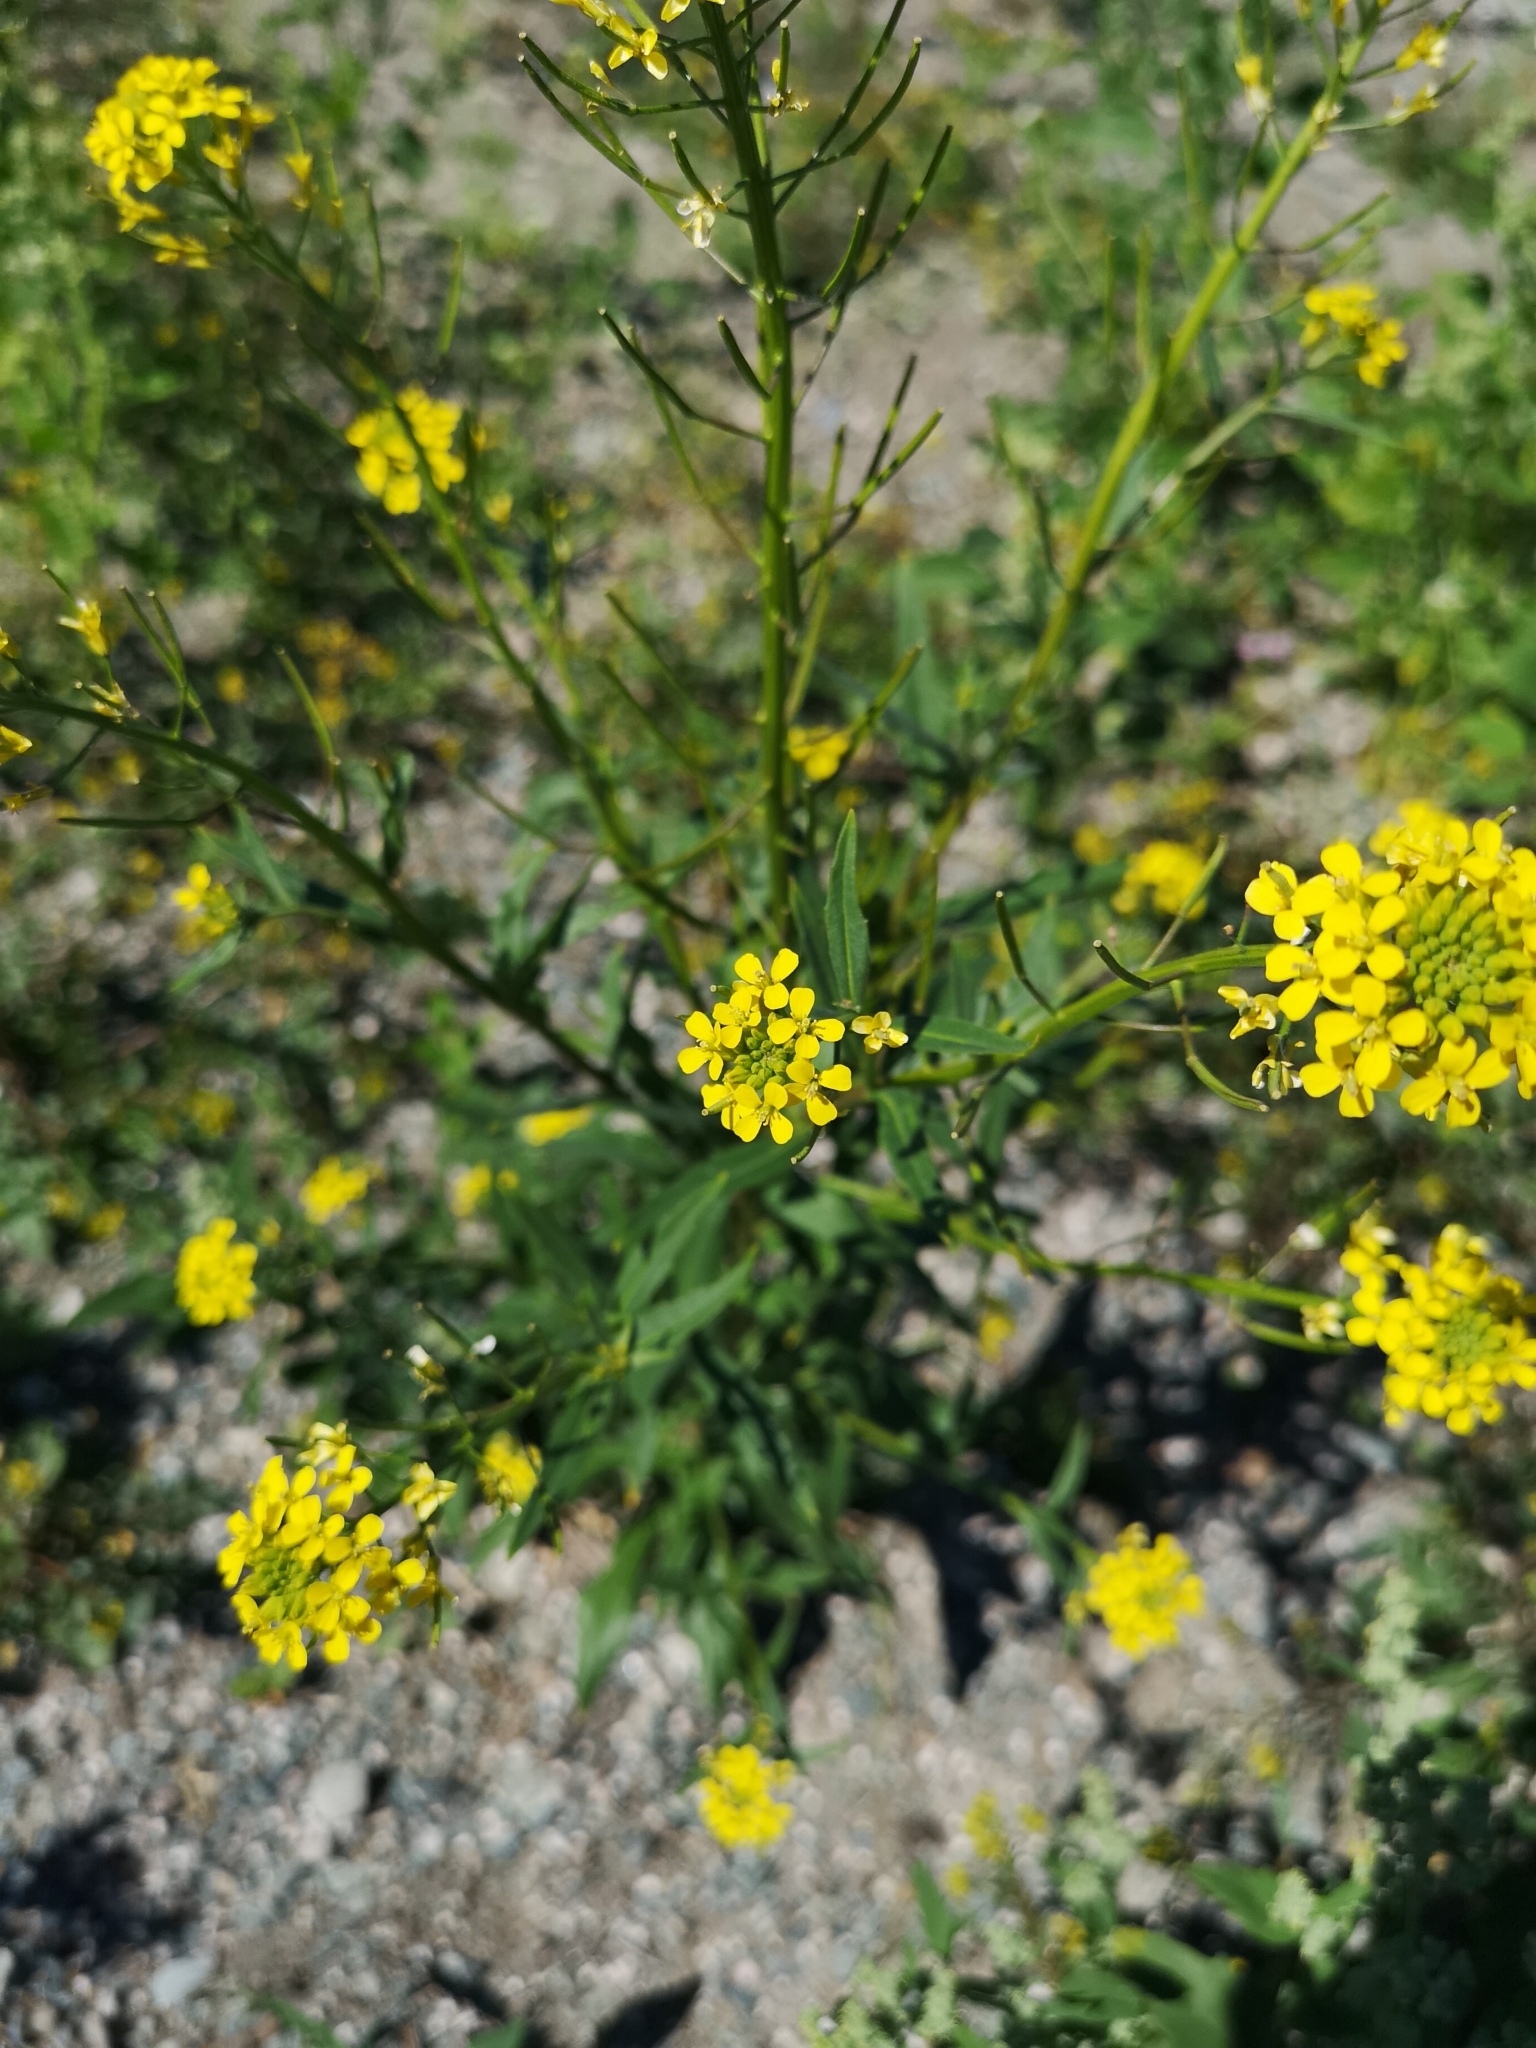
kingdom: Plantae
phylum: Tracheophyta
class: Magnoliopsida
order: Brassicales
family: Brassicaceae
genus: Erysimum
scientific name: Erysimum cheiranthoides
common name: Treacle mustard
